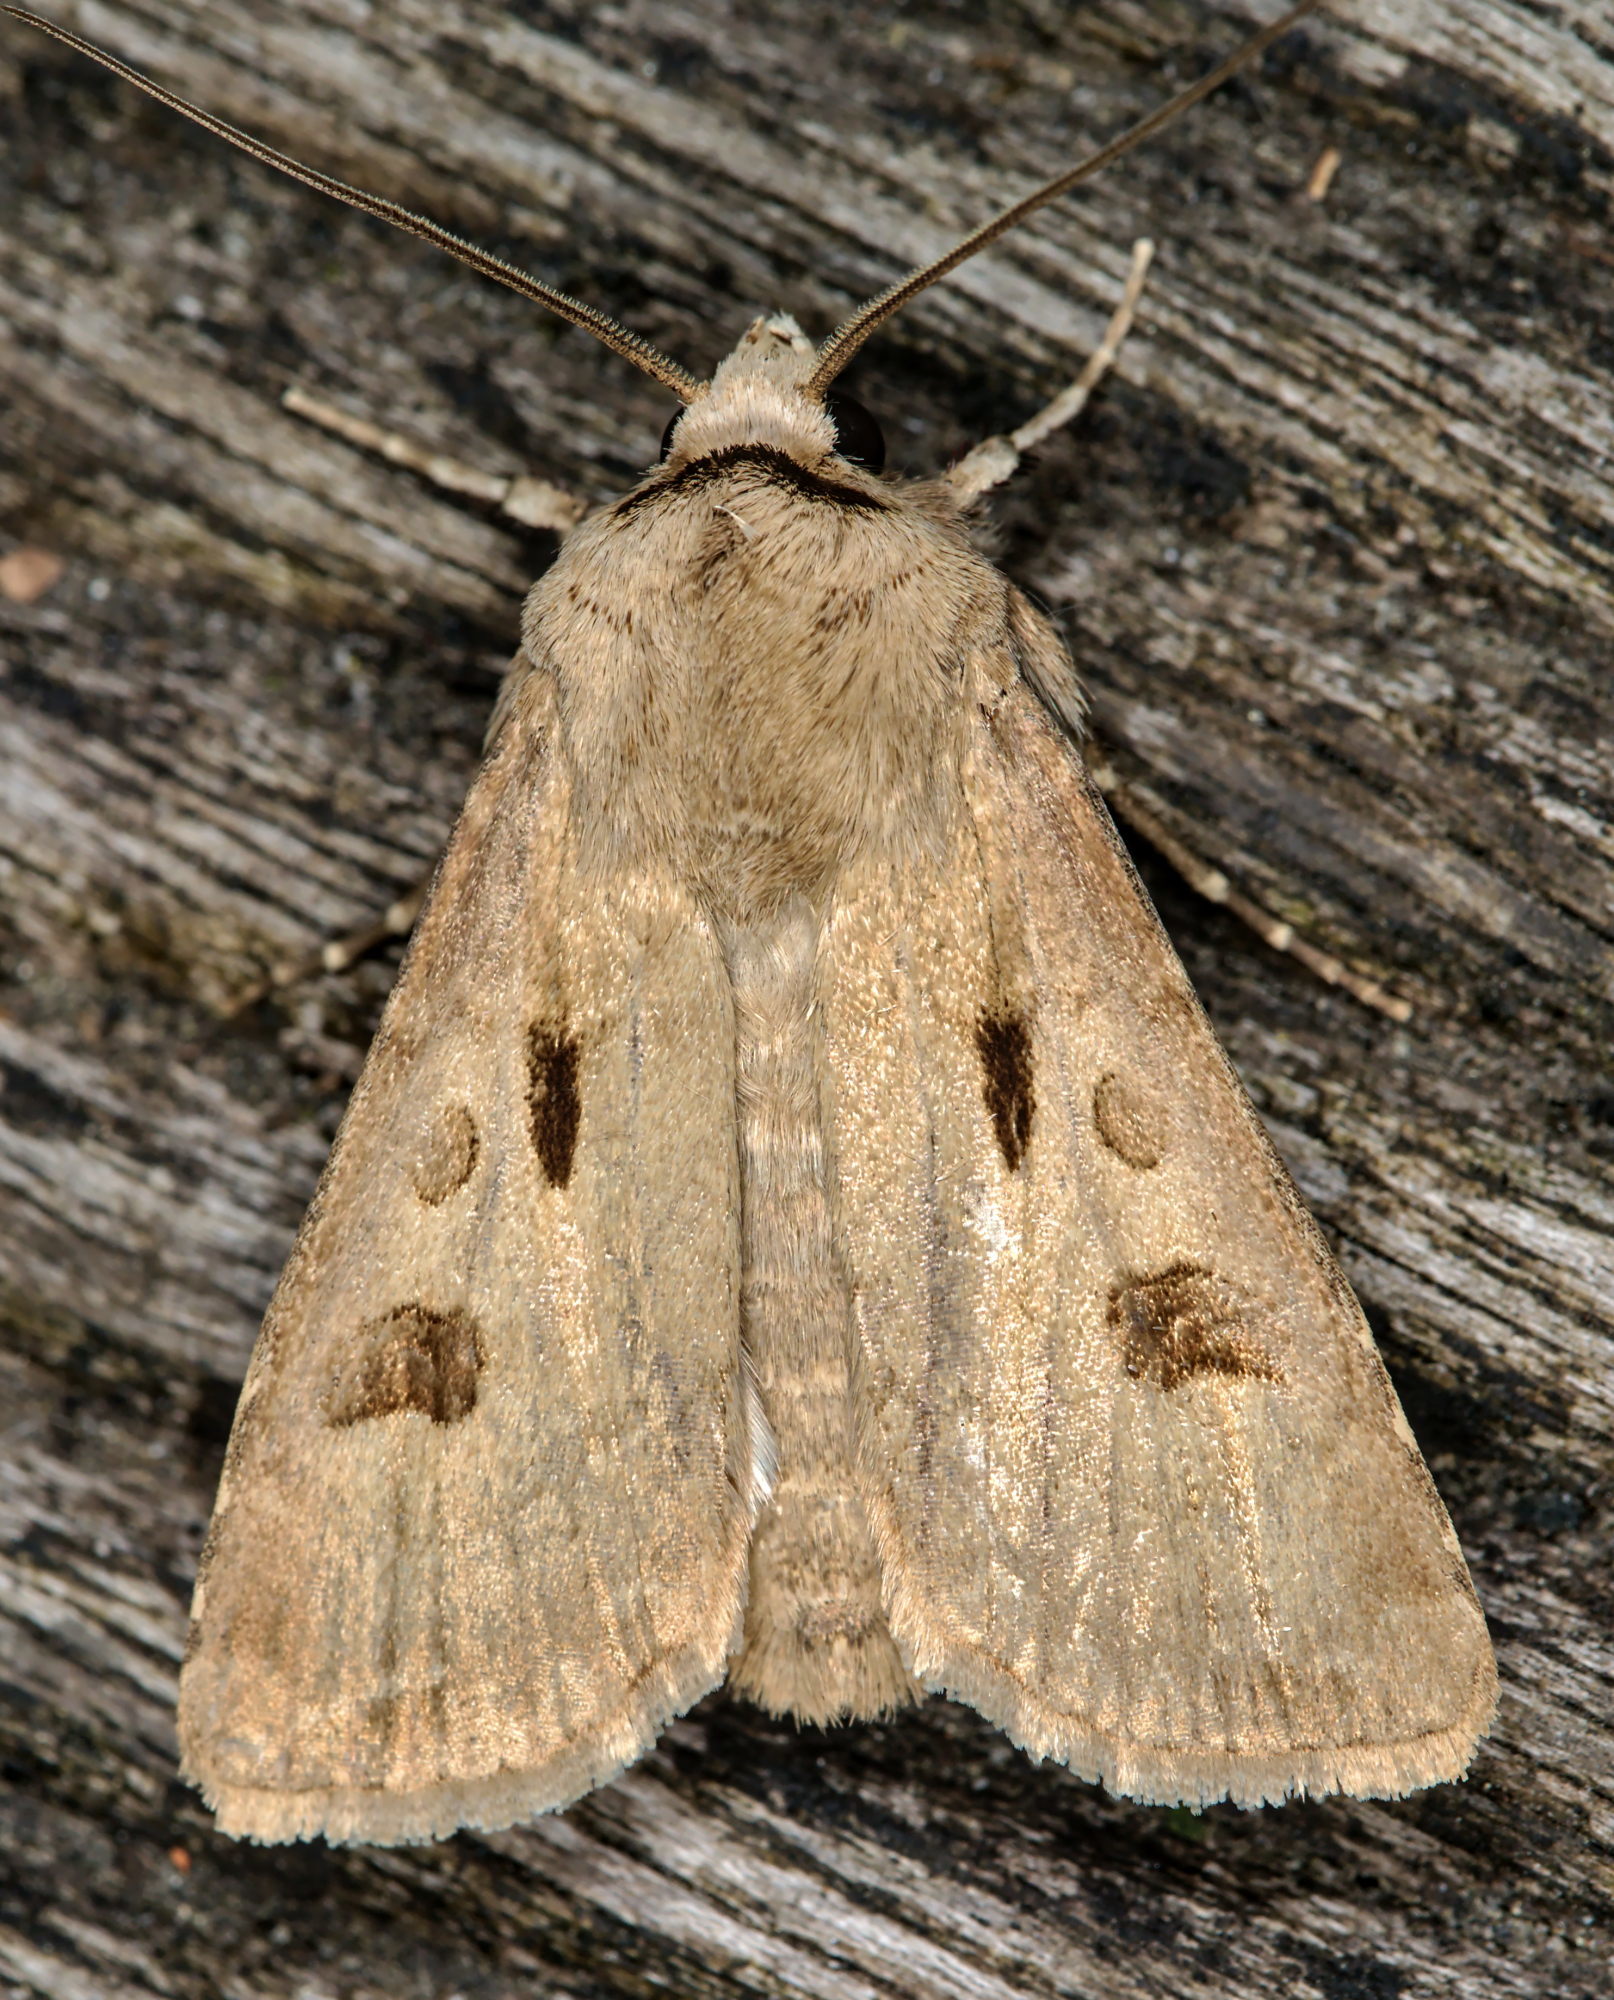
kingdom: Animalia
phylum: Arthropoda
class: Insecta
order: Lepidoptera
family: Noctuidae
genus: Agrotis
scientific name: Agrotis exclamationis
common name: Heart and dart
